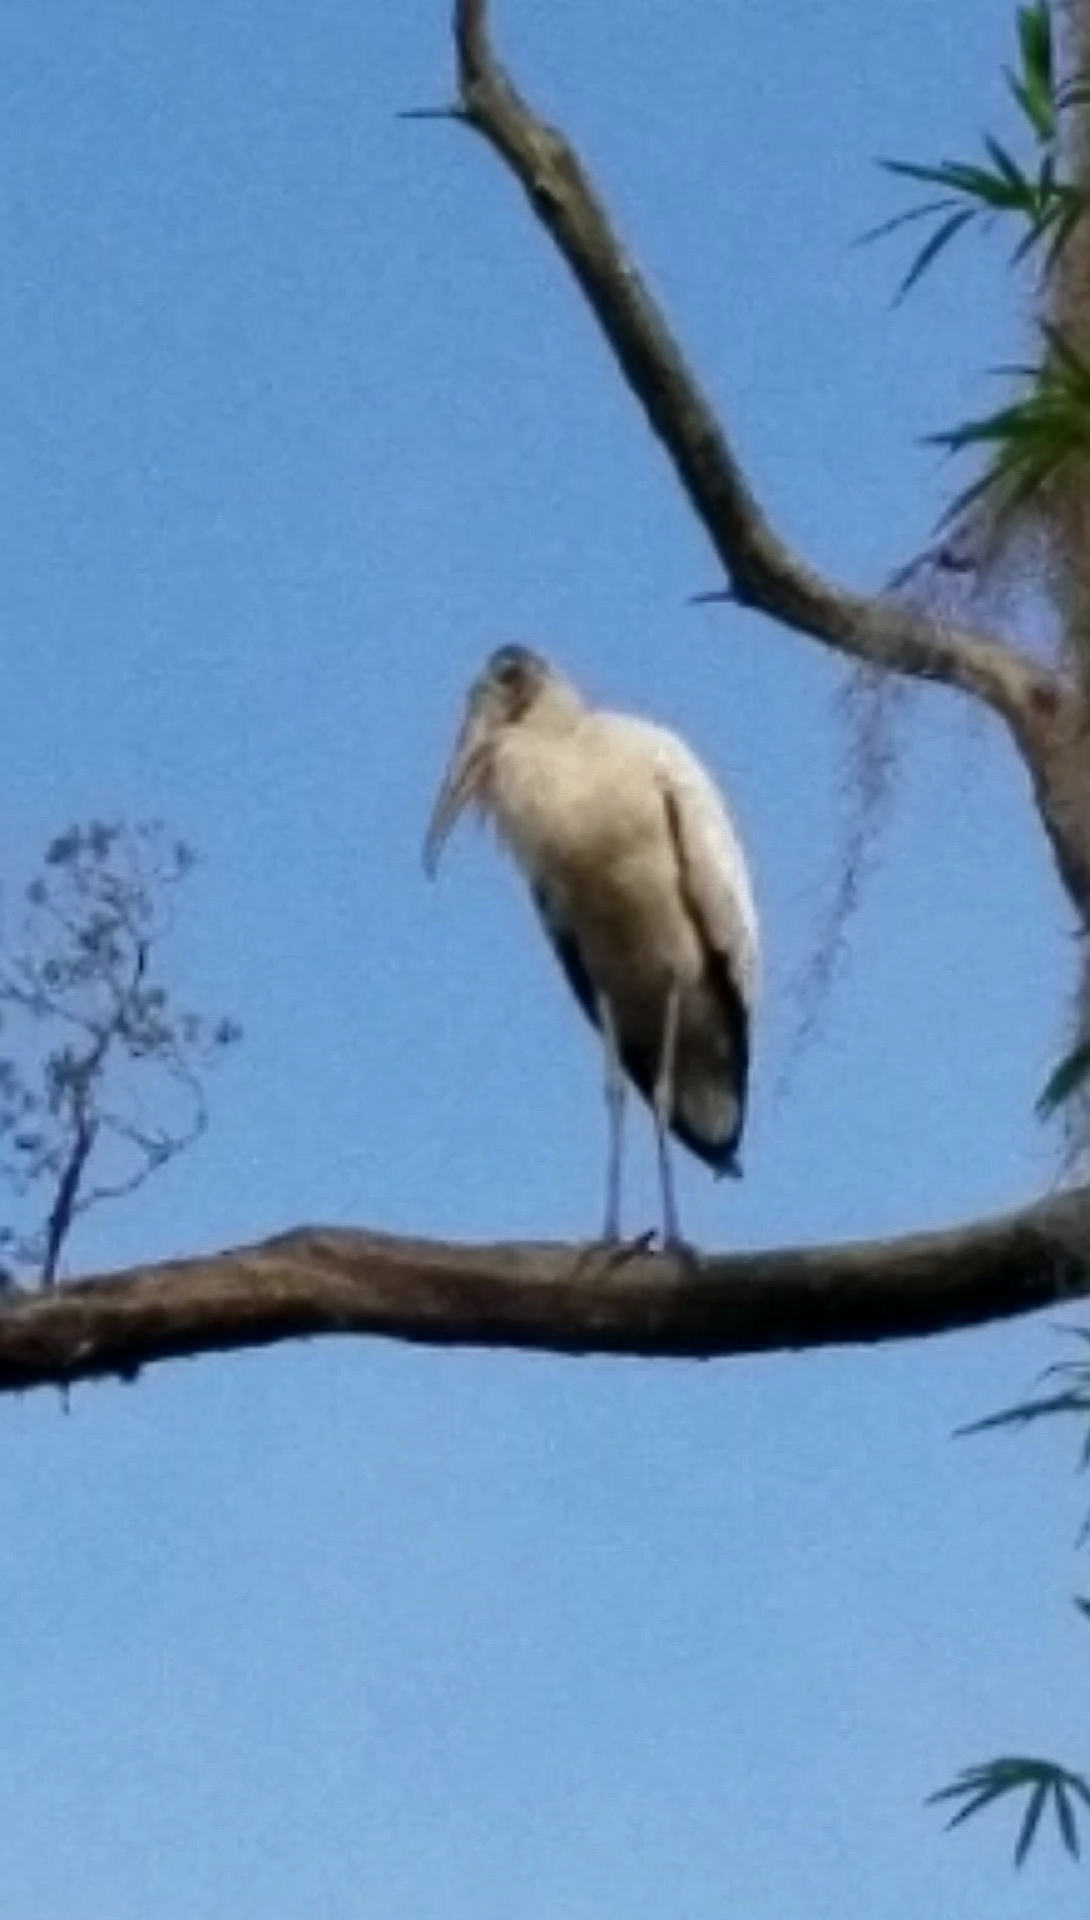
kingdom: Animalia
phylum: Chordata
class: Aves
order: Ciconiiformes
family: Ciconiidae
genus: Mycteria
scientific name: Mycteria americana
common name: Wood stork
